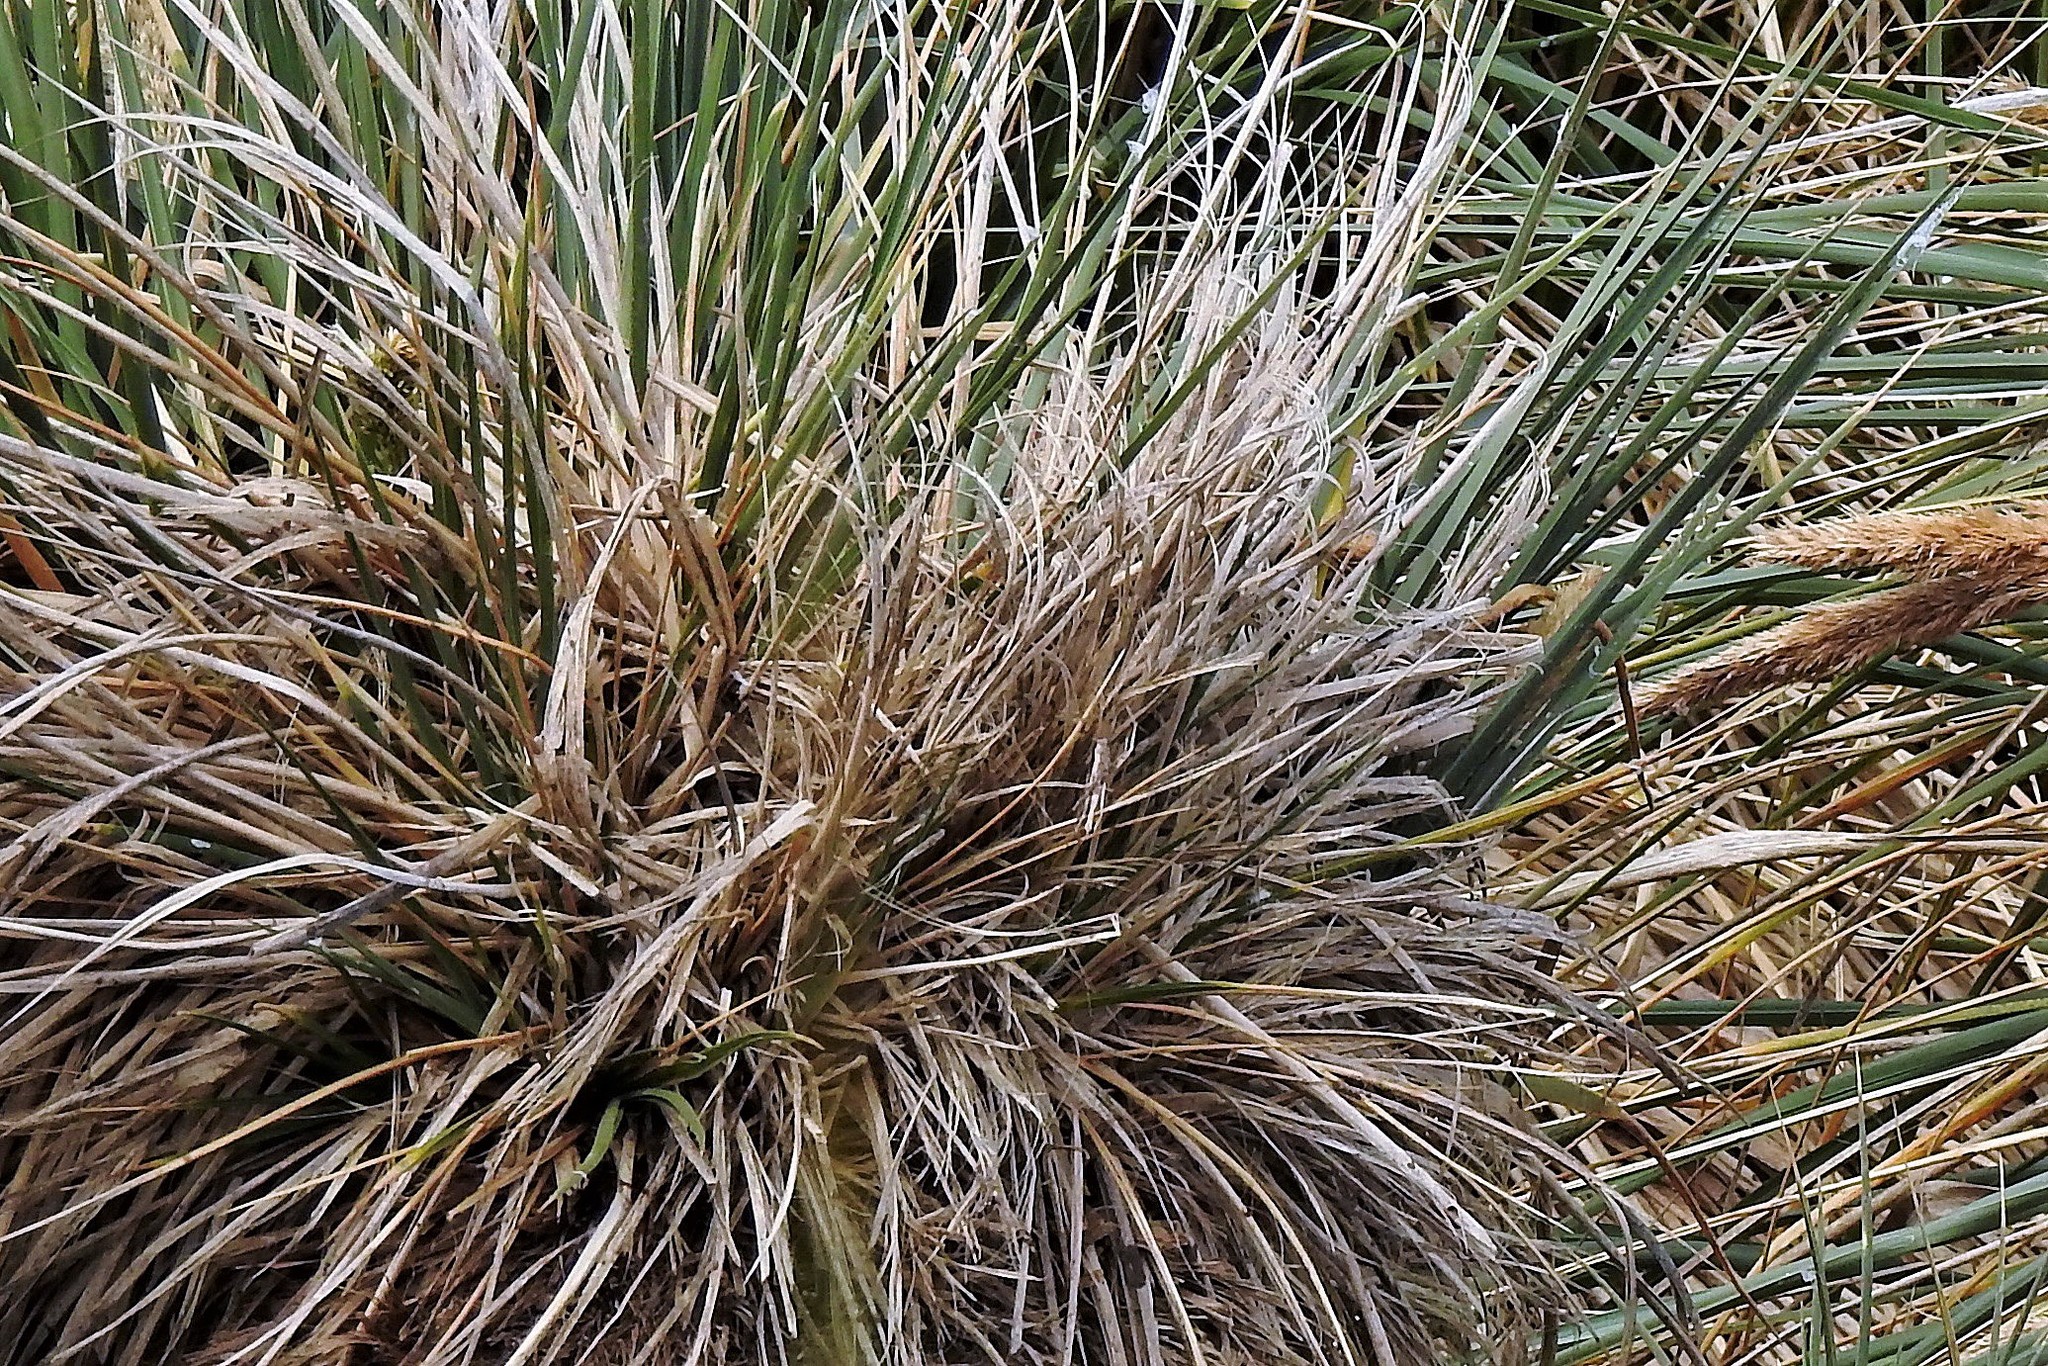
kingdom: Plantae
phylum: Tracheophyta
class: Liliopsida
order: Poales
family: Poaceae
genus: Poa
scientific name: Poa flabellata
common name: Tussac-grass
